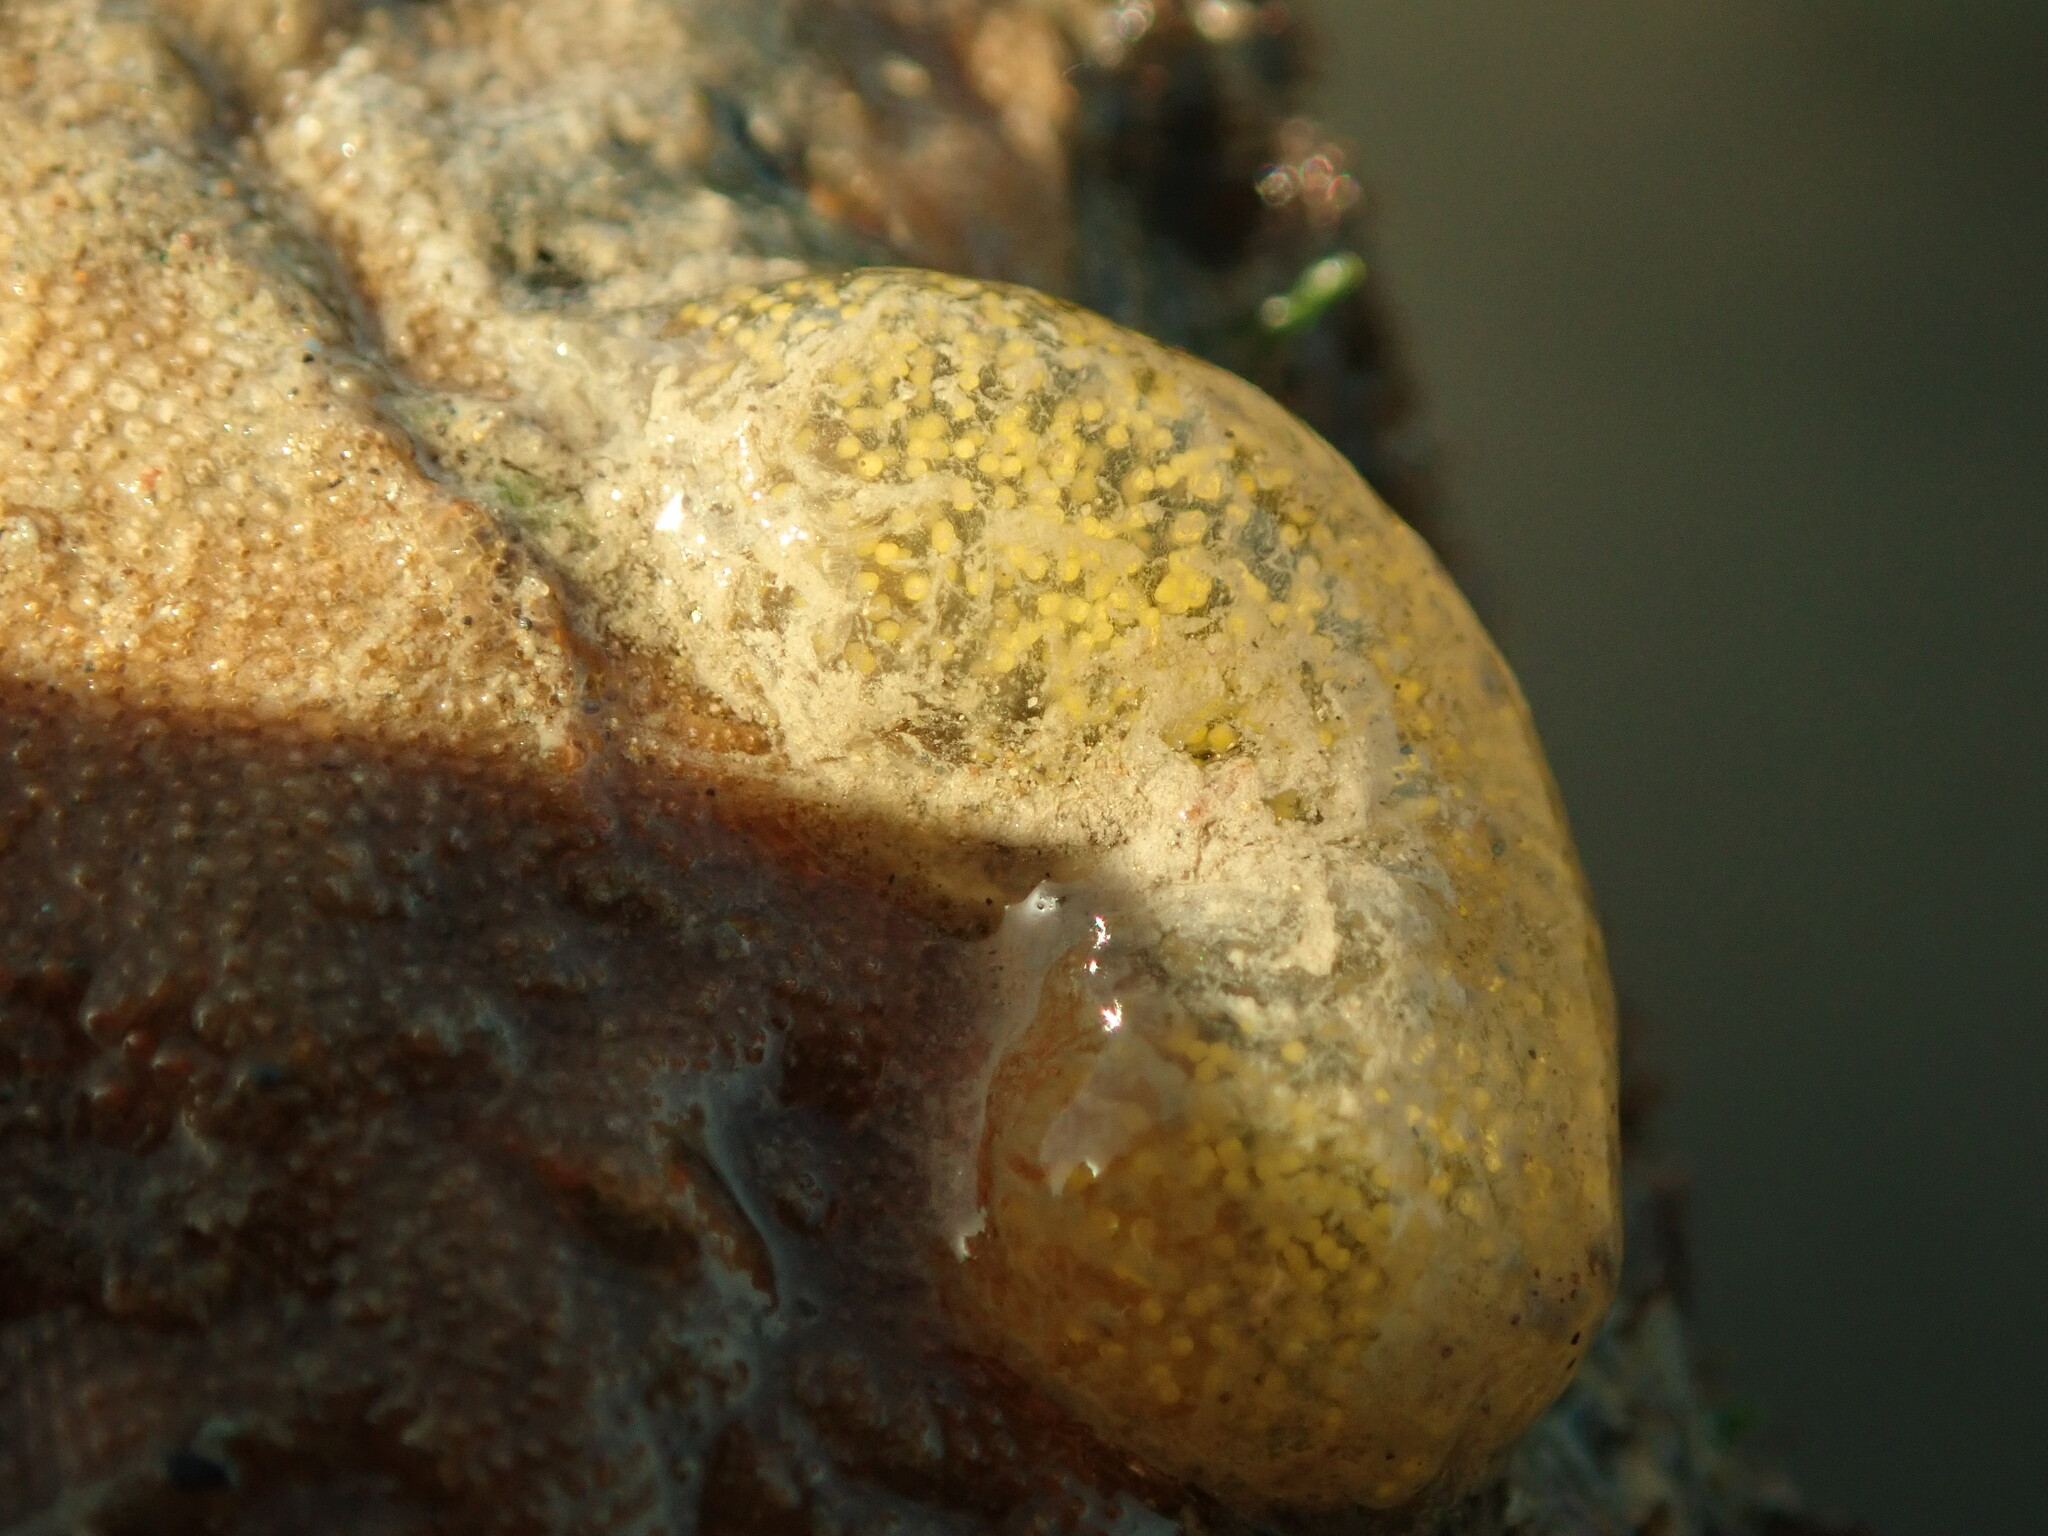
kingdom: Animalia
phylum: Mollusca
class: Gastropoda
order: Cephalaspidea
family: Haminoeidae
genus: Haloa
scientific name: Haloa japonica
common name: Japanese bubble snail
